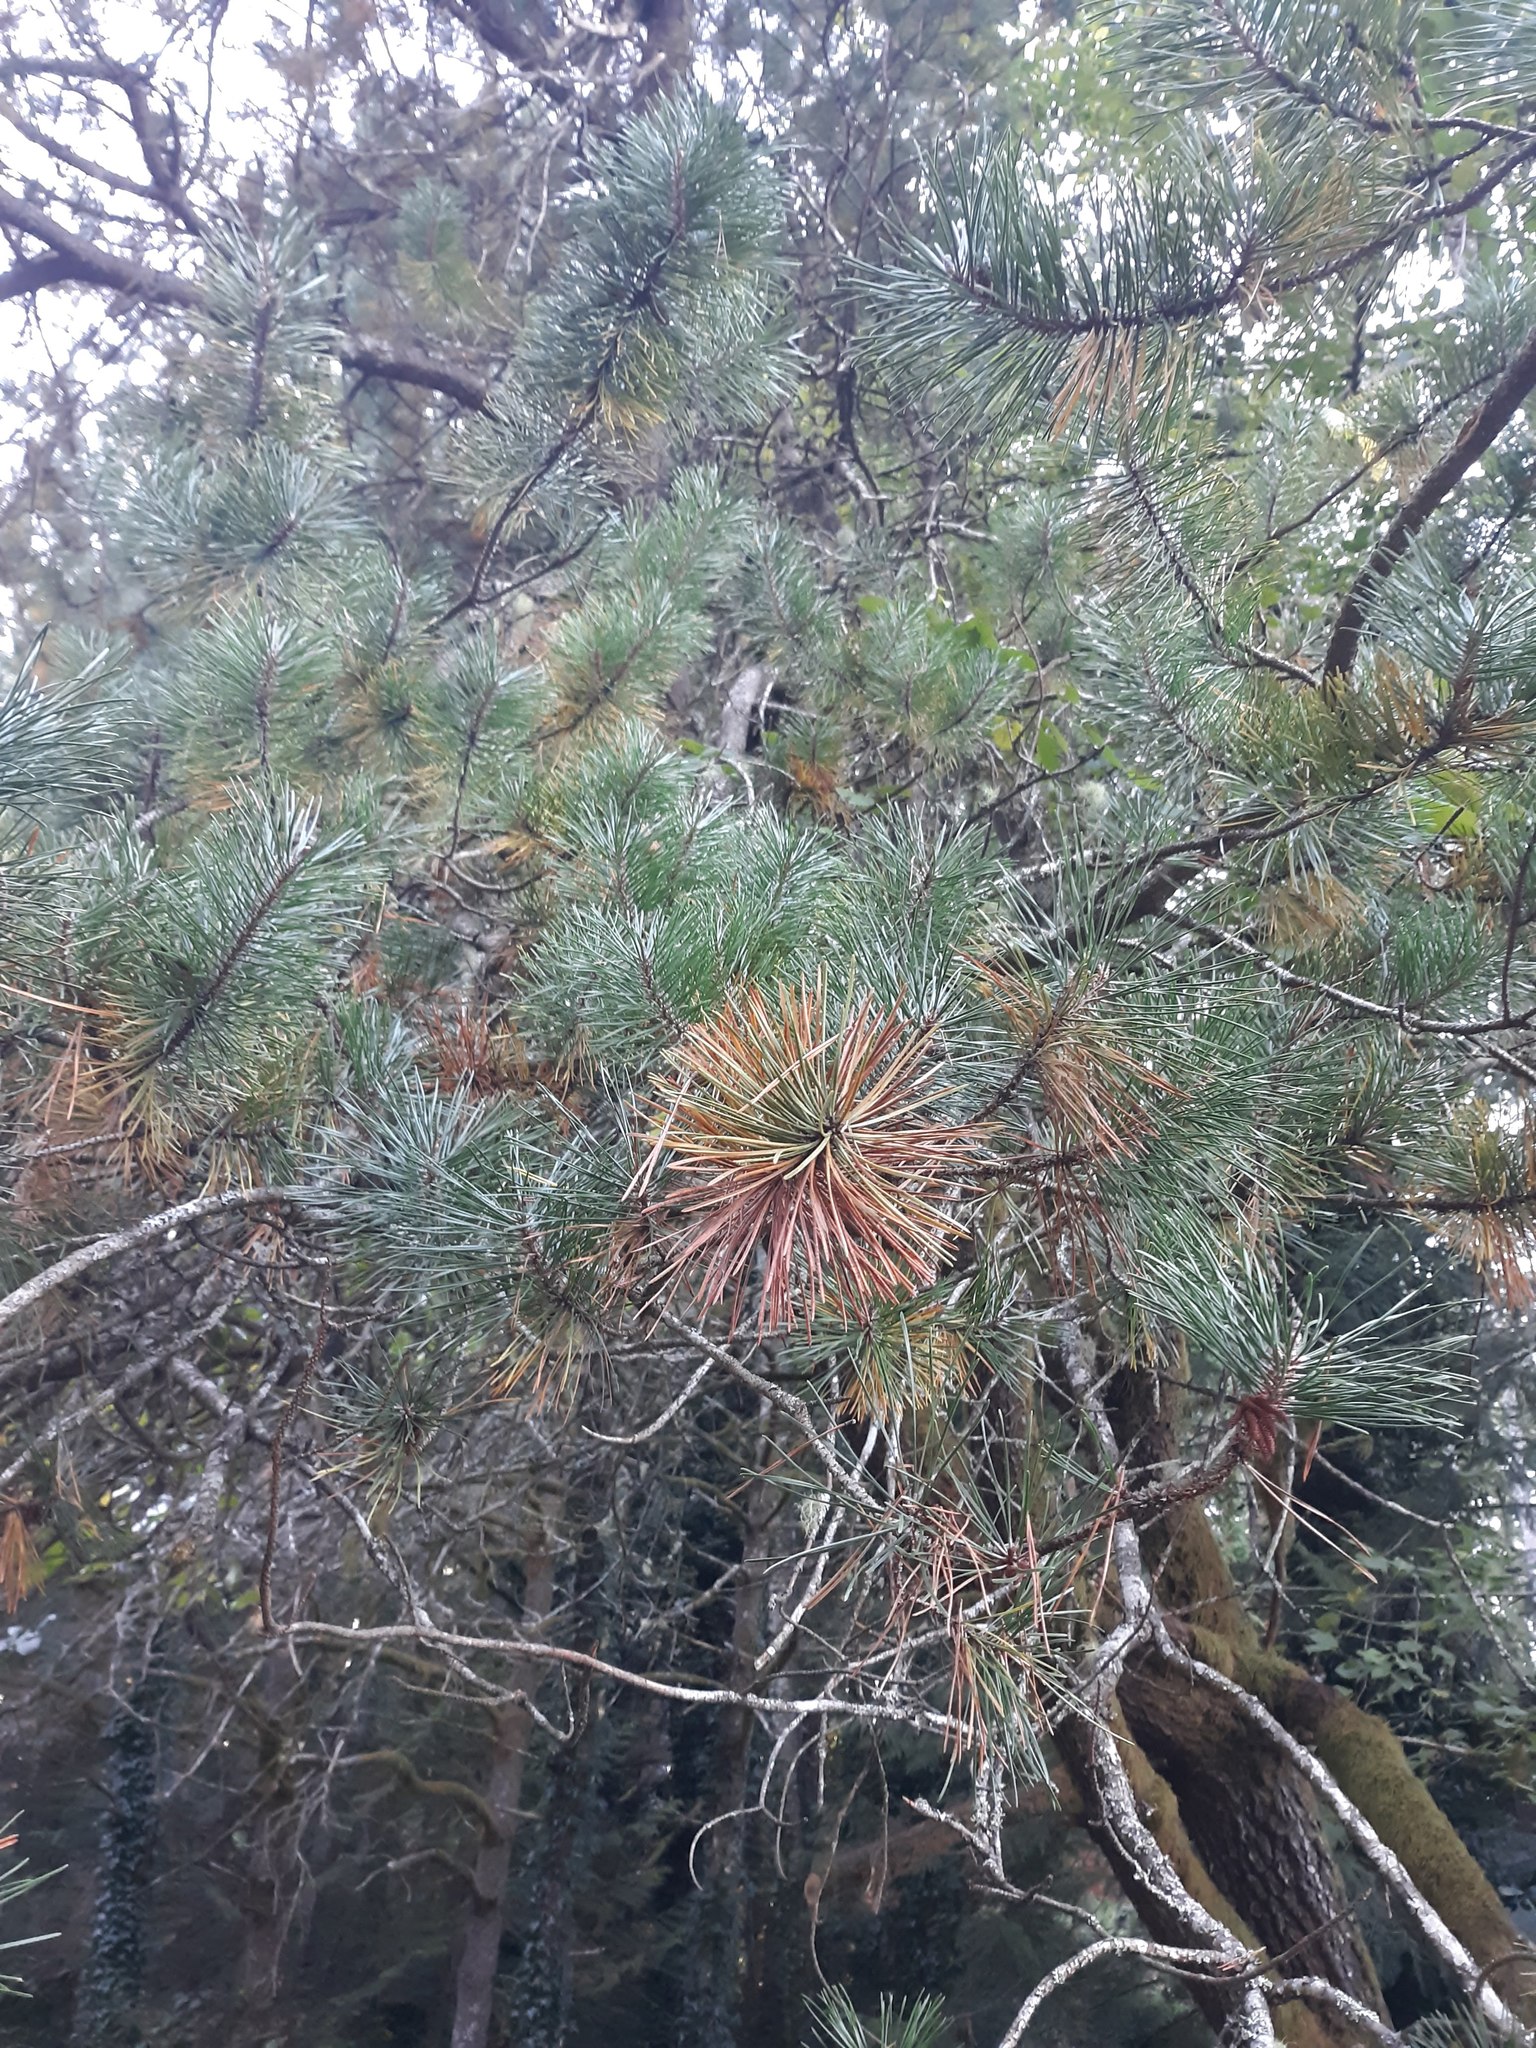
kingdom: Plantae
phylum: Tracheophyta
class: Pinopsida
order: Pinales
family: Pinaceae
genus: Pinus
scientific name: Pinus contorta
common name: Lodgepole pine
